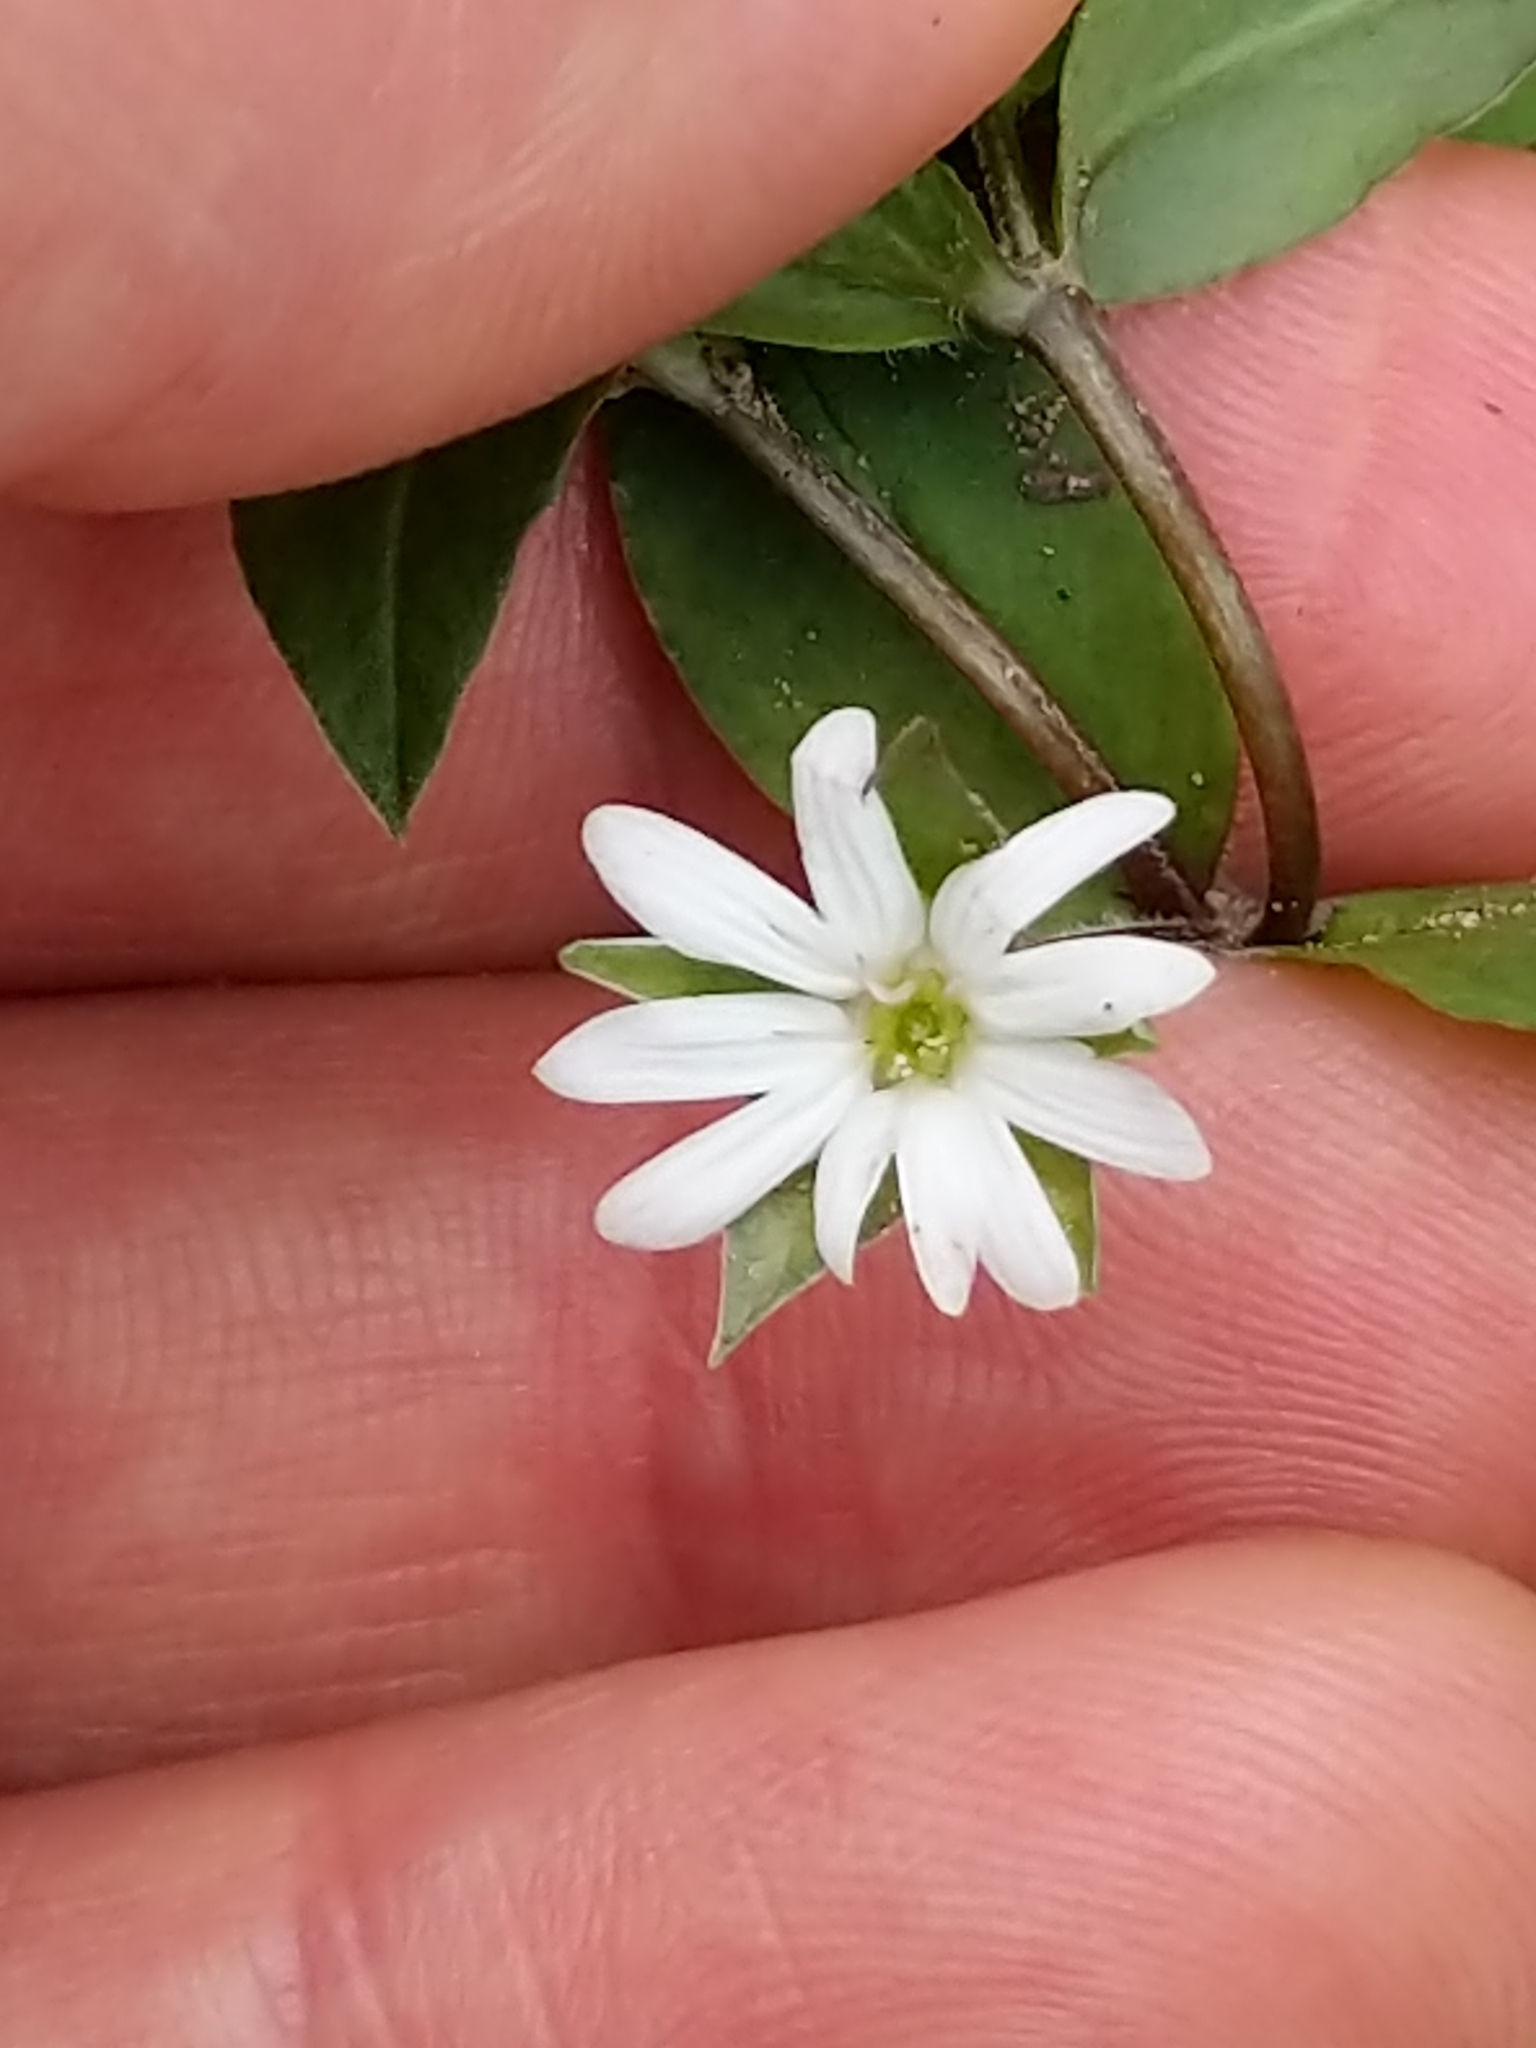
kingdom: Plantae
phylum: Tracheophyta
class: Magnoliopsida
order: Caryophyllales
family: Caryophyllaceae
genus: Stellaria
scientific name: Stellaria pubera
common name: Star chickweed
